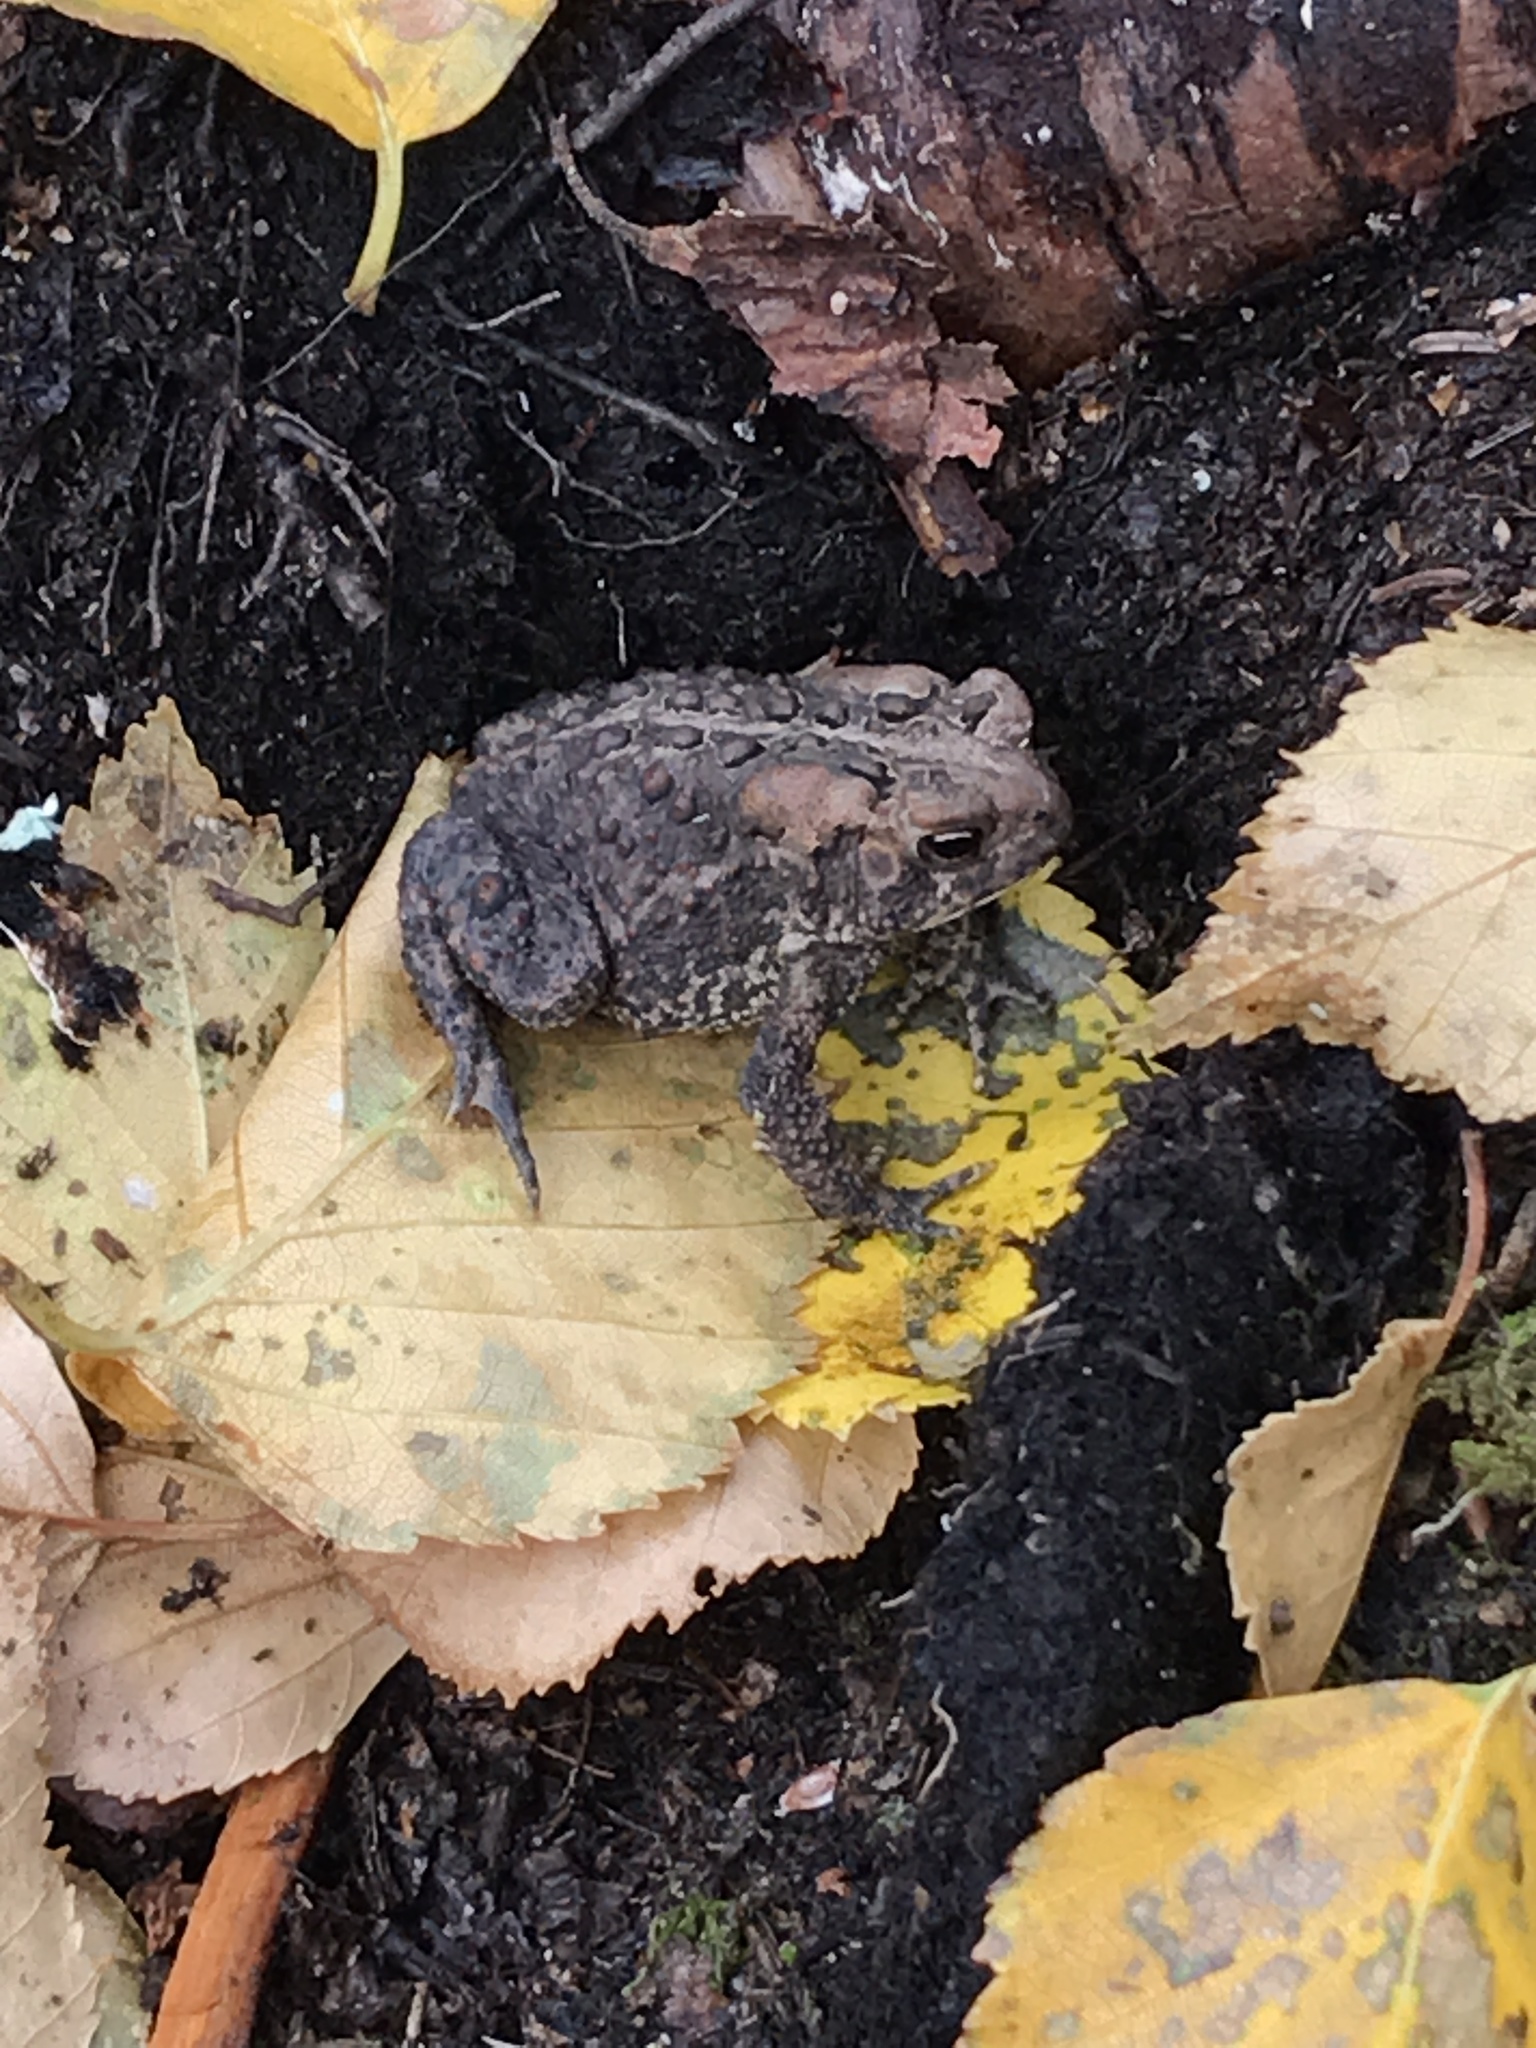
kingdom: Animalia
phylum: Chordata
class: Amphibia
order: Anura
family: Bufonidae
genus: Anaxyrus
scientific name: Anaxyrus americanus
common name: American toad
